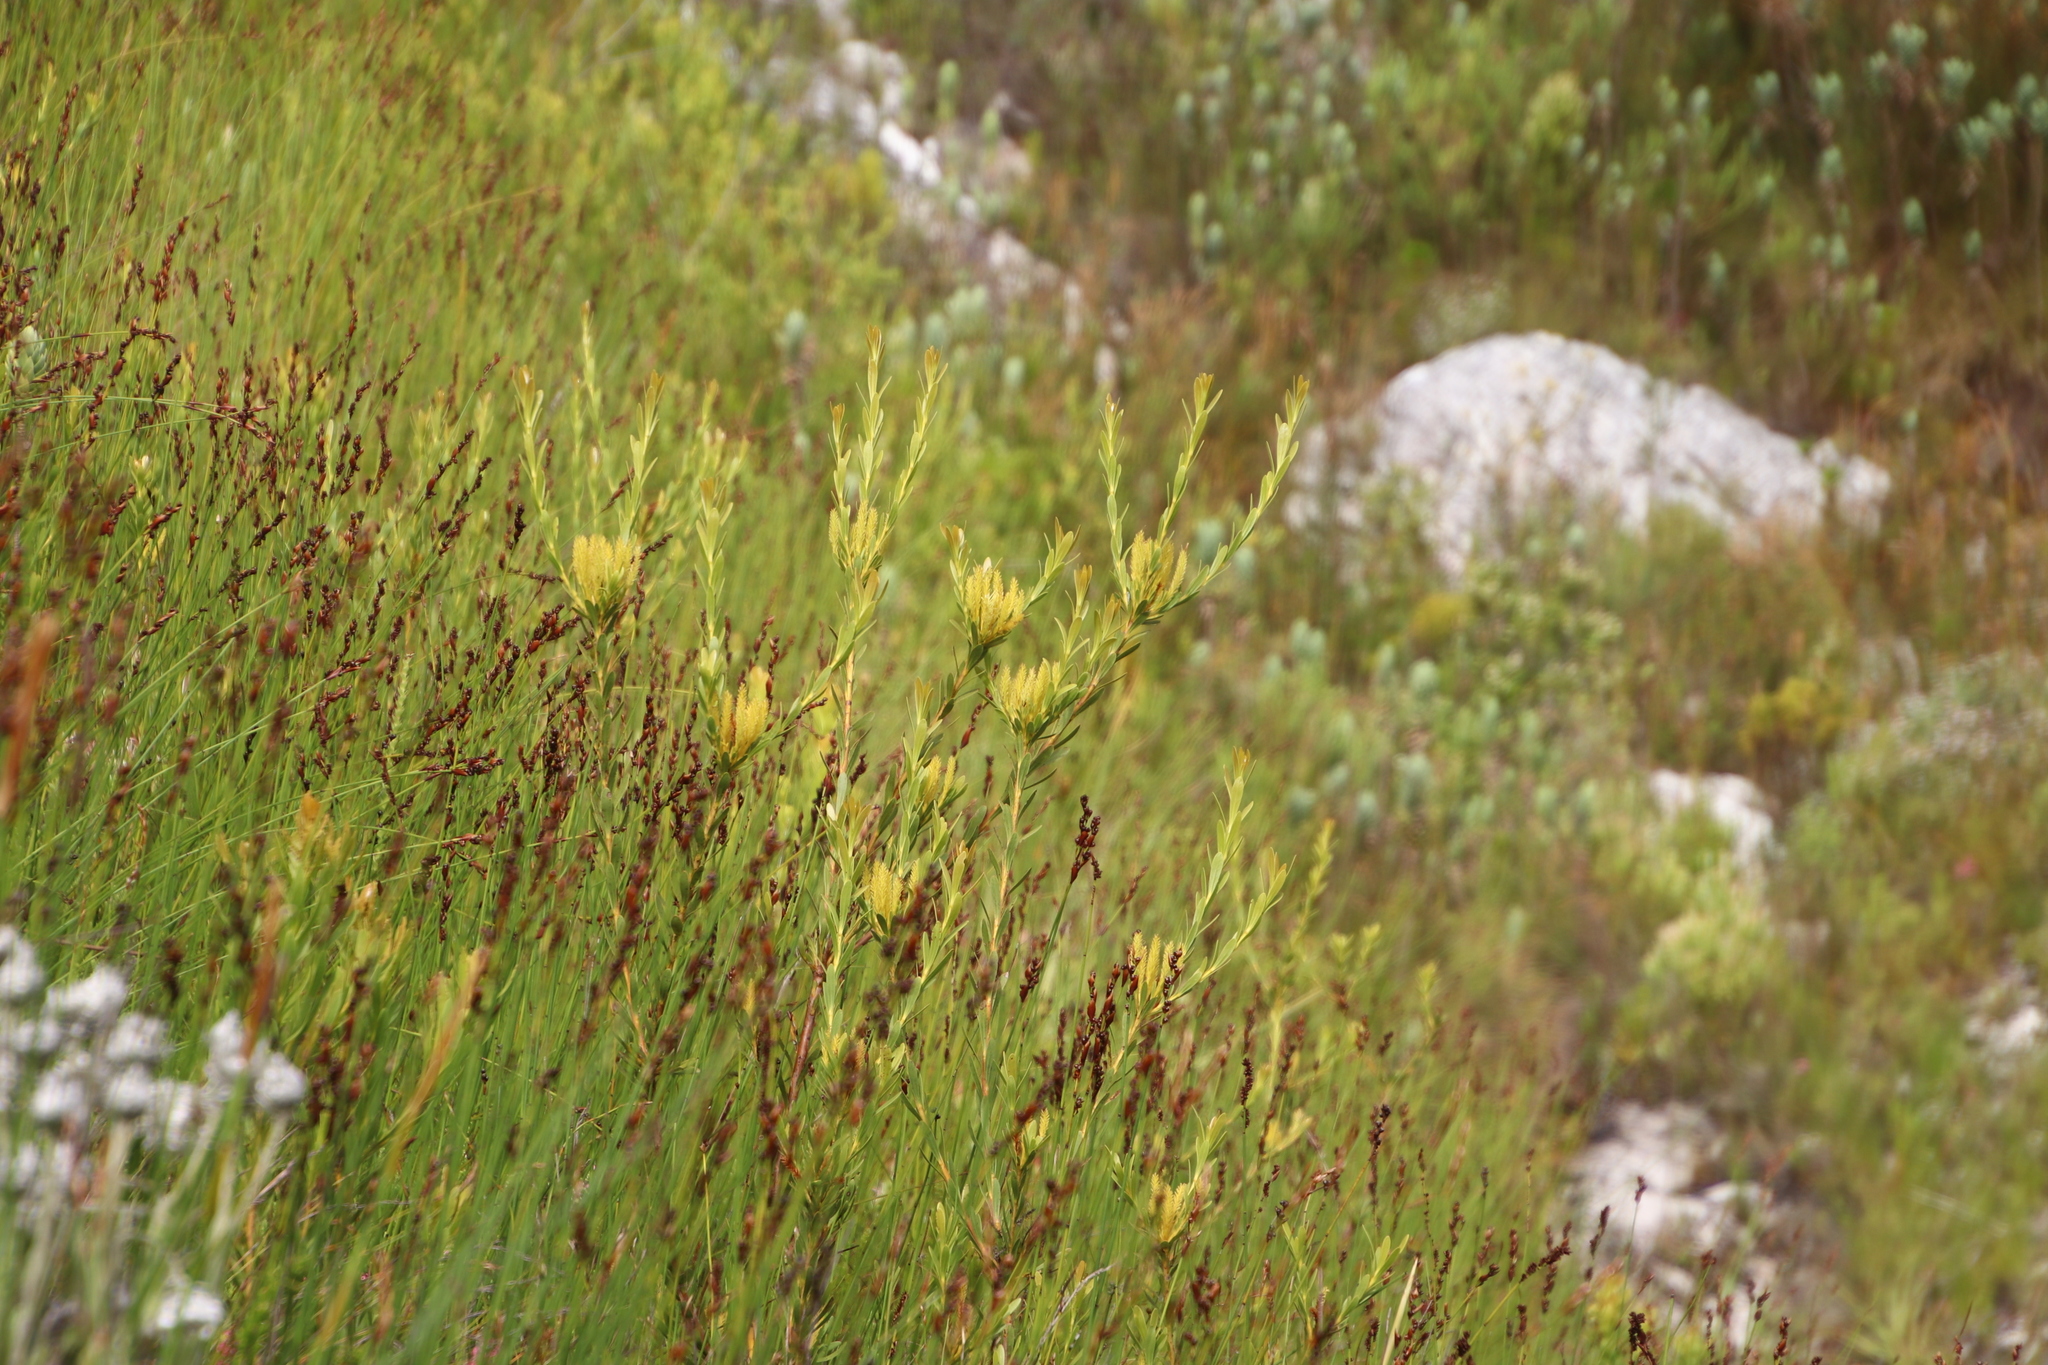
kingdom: Plantae
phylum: Tracheophyta
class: Magnoliopsida
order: Proteales
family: Proteaceae
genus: Aulax
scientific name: Aulax umbellata
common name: Broad-leaf featherbush
